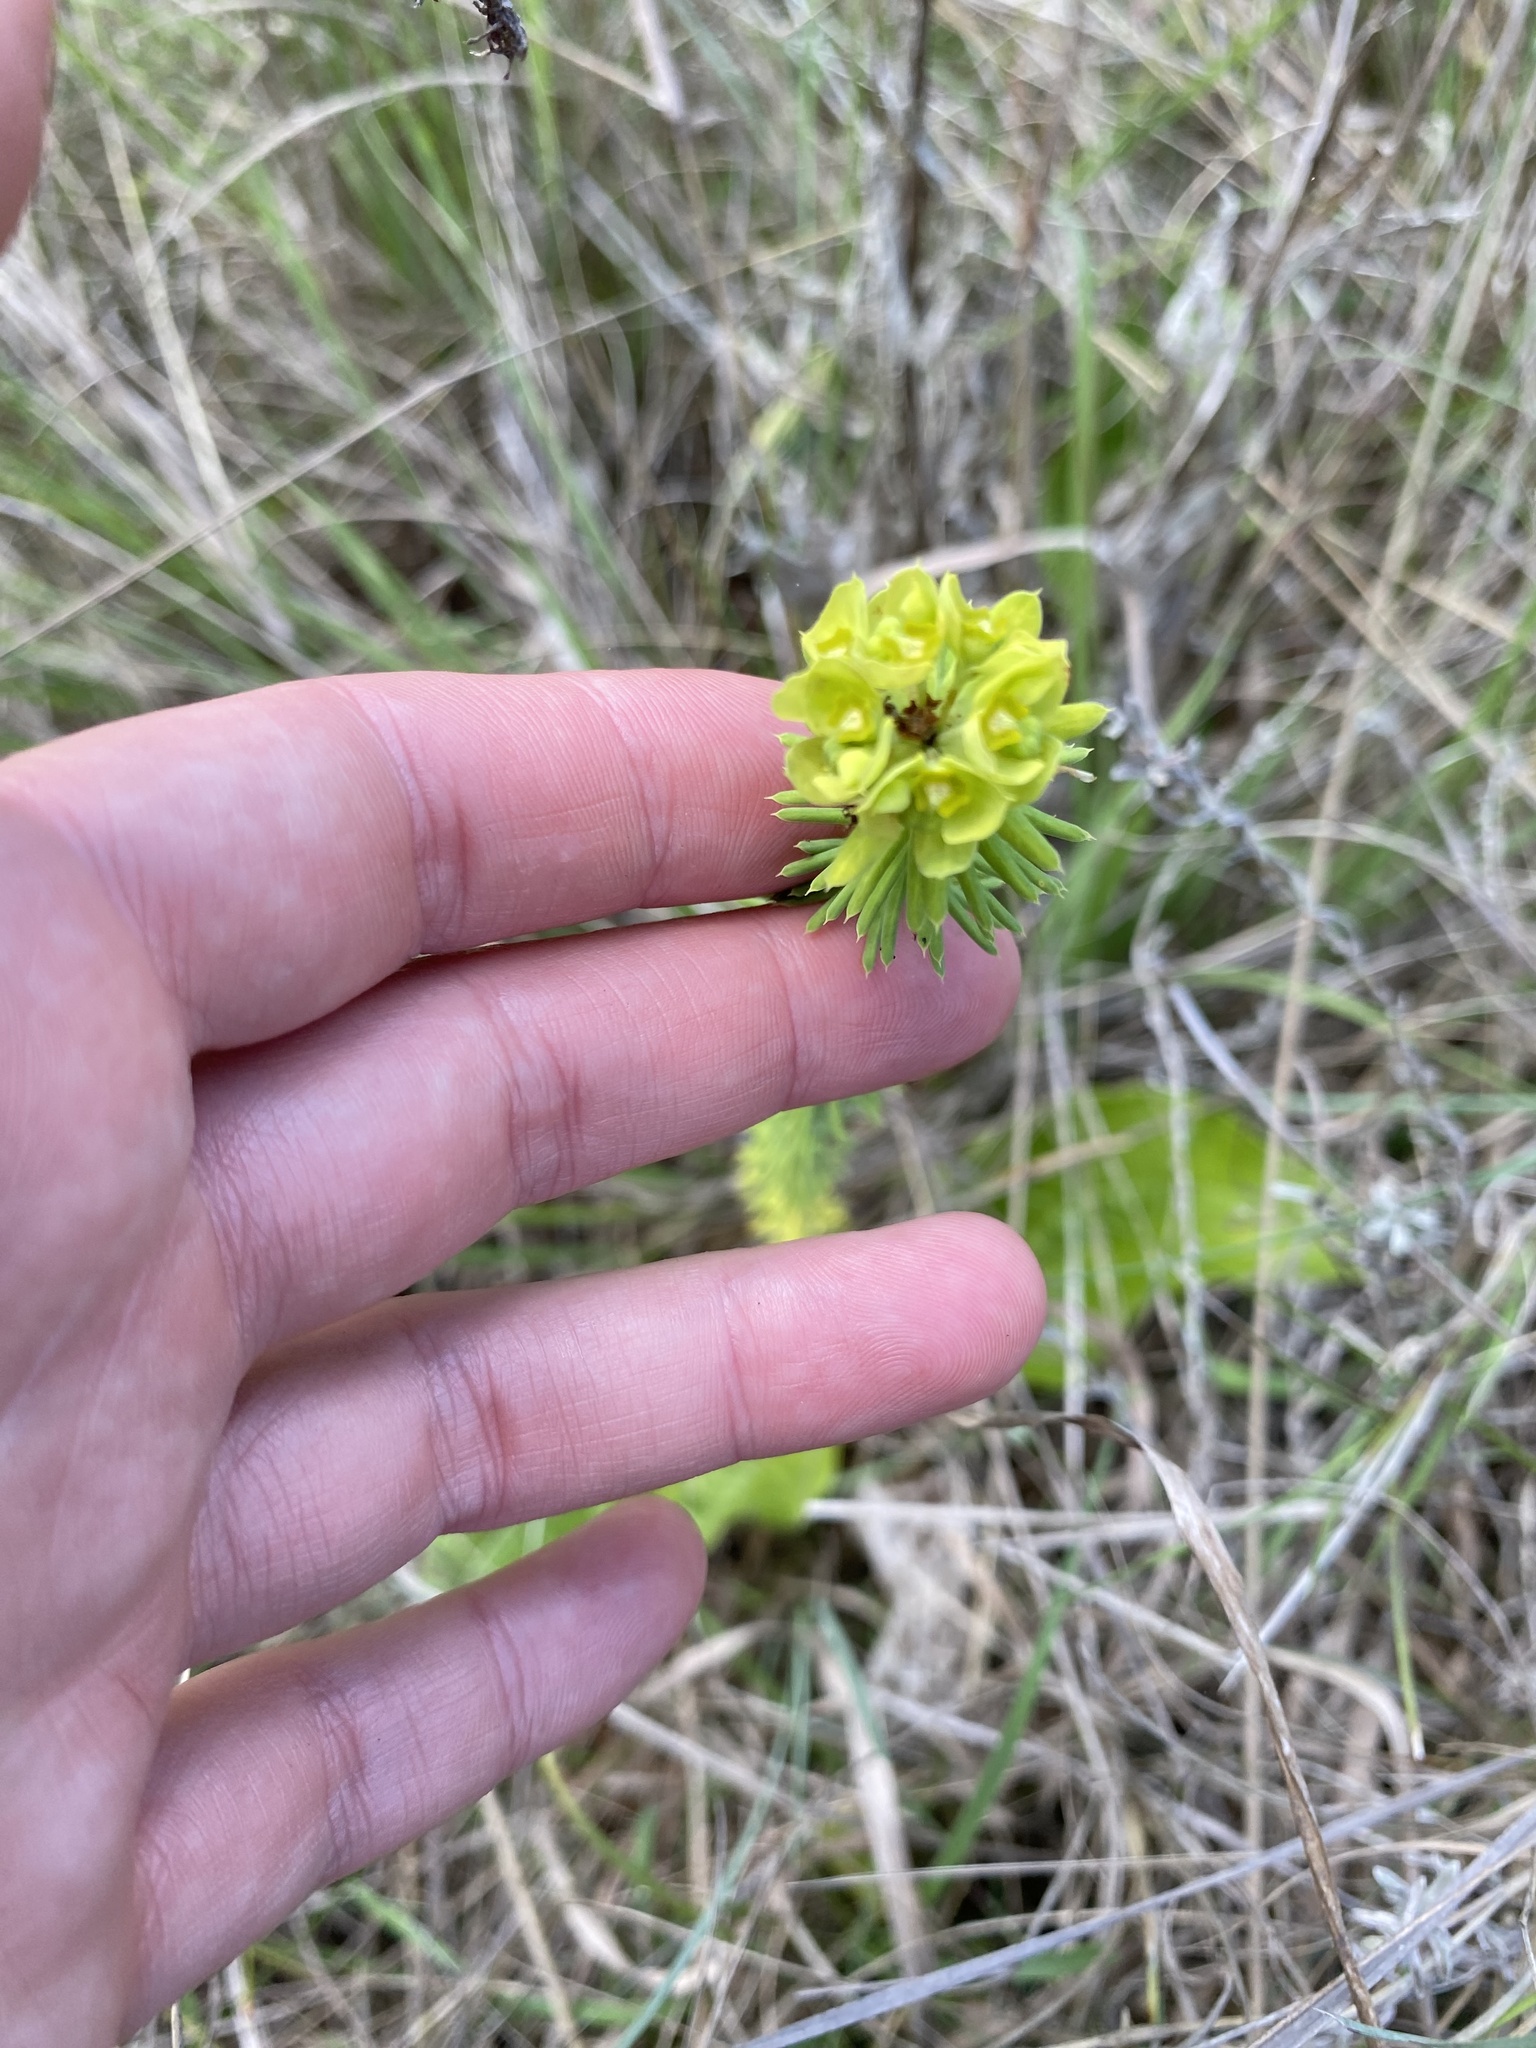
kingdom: Plantae
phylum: Tracheophyta
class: Magnoliopsida
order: Malpighiales
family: Euphorbiaceae
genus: Euphorbia
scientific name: Euphorbia natalensis
